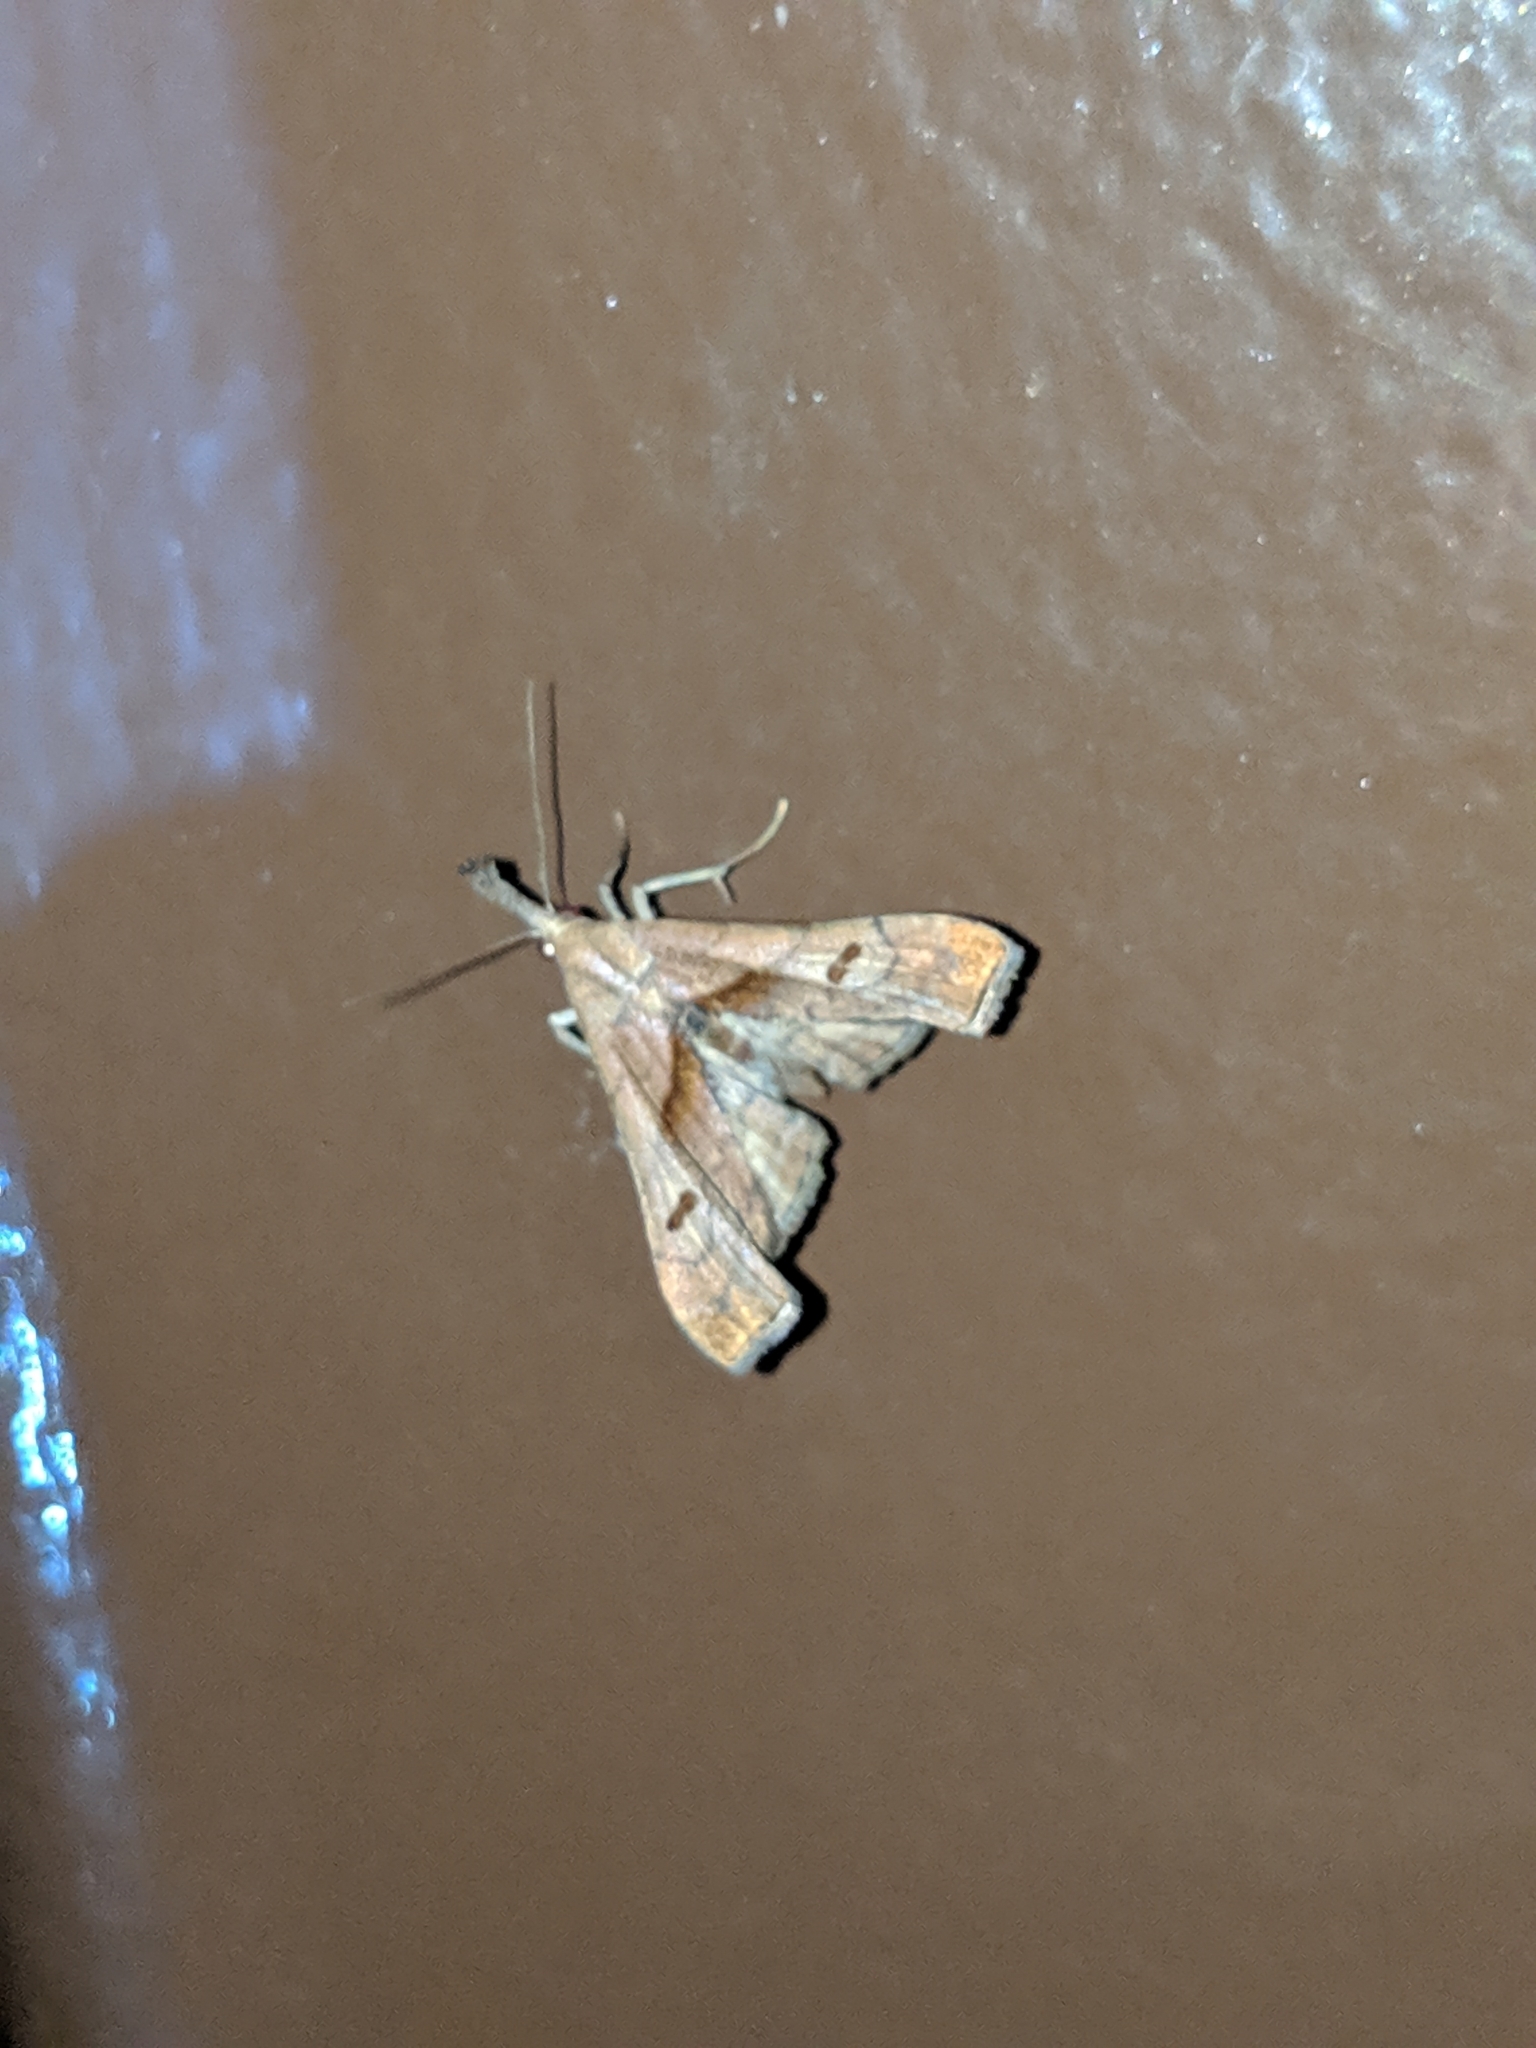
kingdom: Animalia
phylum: Arthropoda
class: Insecta
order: Lepidoptera
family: Erebidae
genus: Palthis
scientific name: Palthis angulalis
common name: Dark-spotted palthis moth
